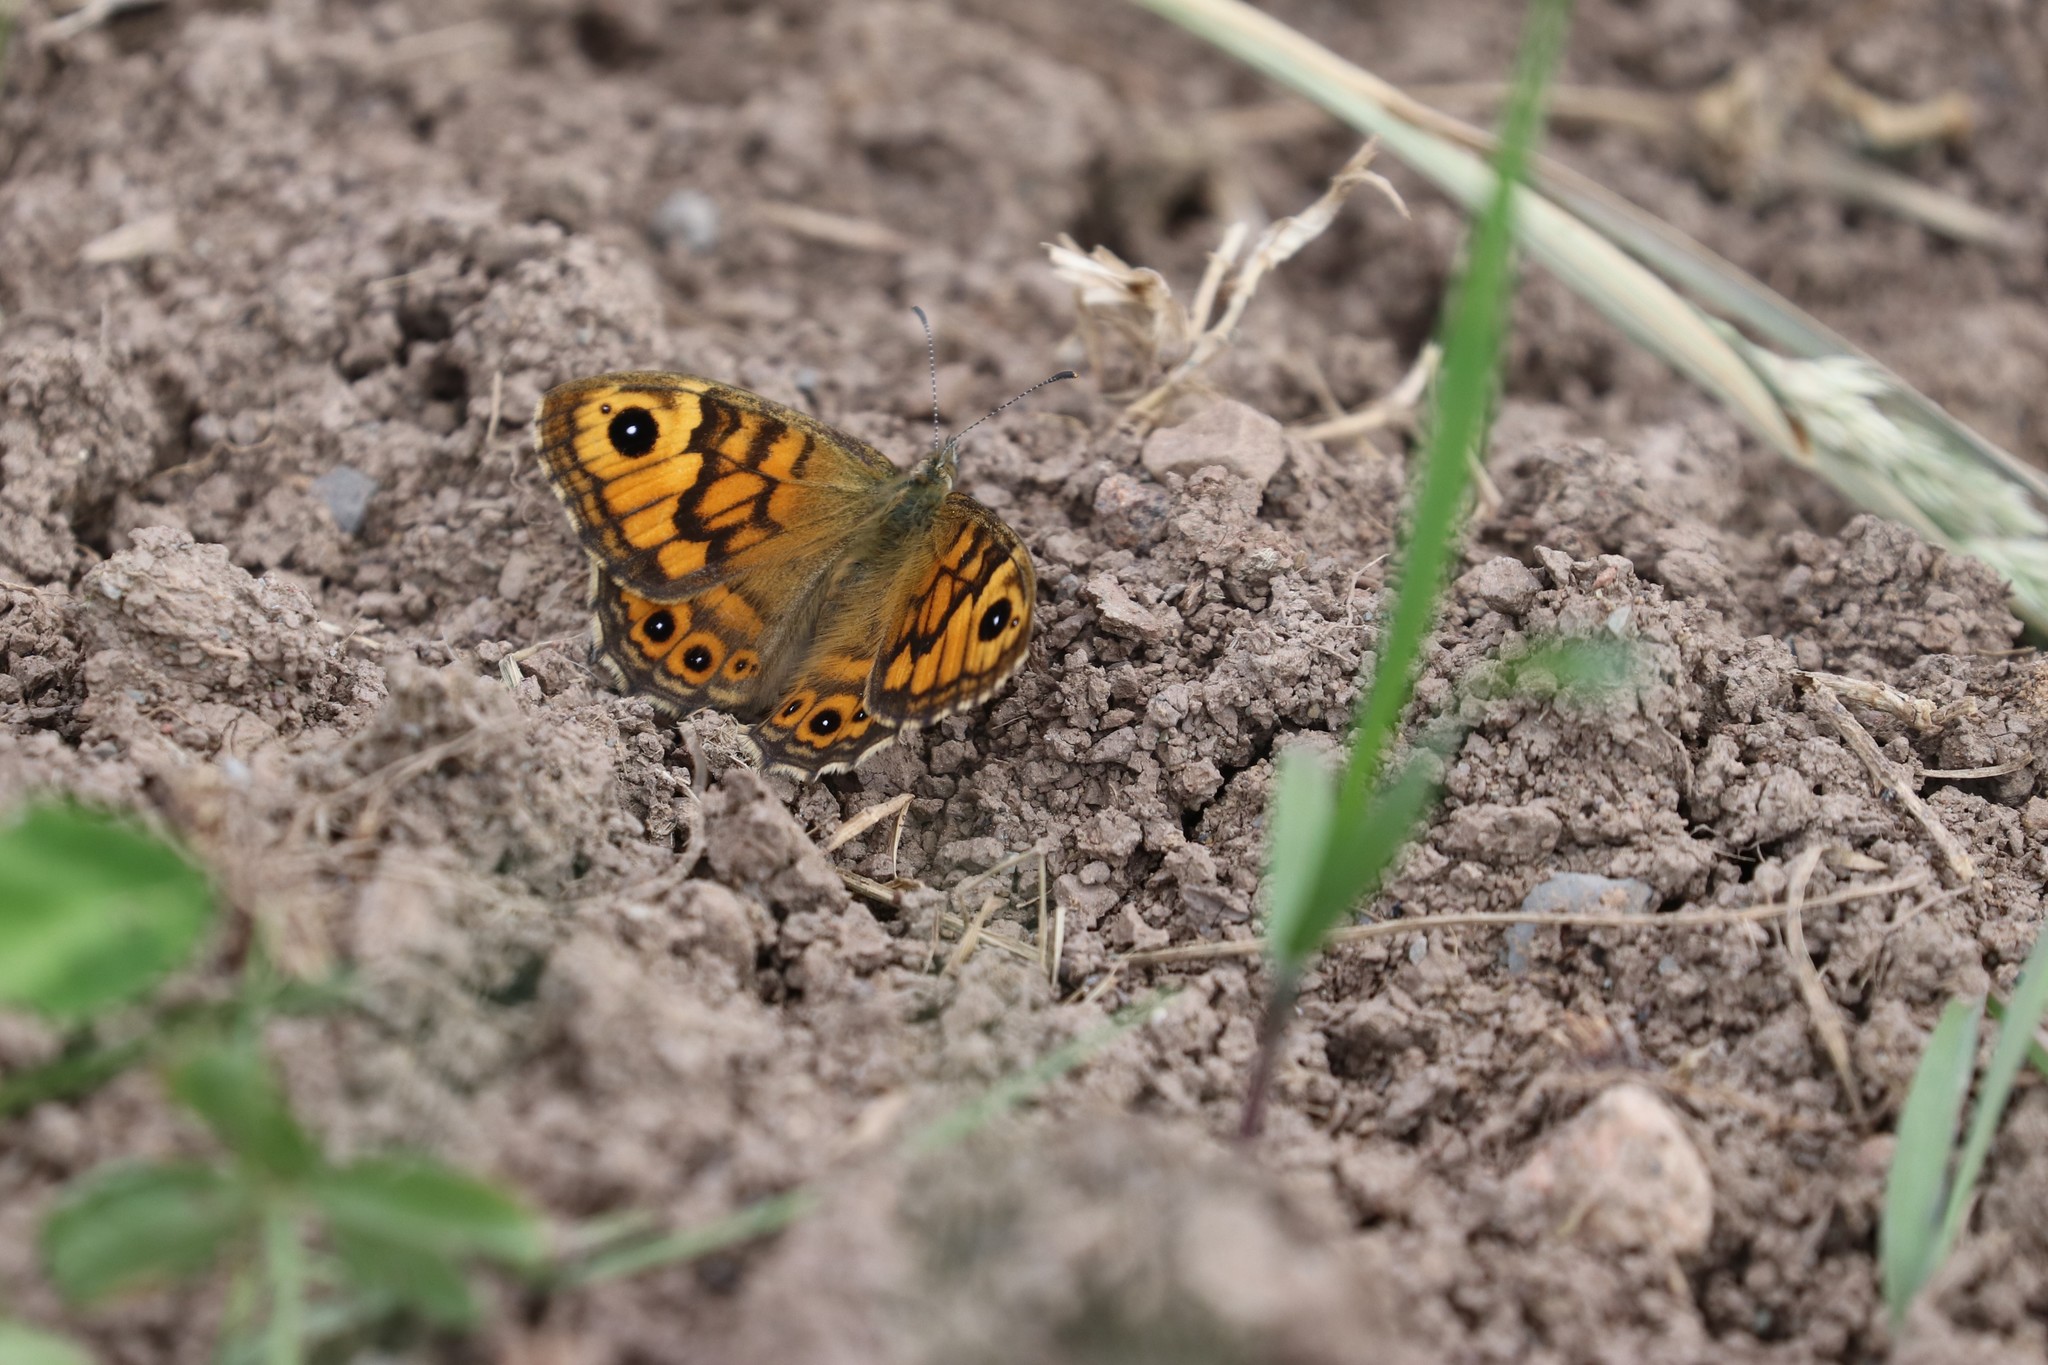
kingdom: Animalia
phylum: Arthropoda
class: Insecta
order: Lepidoptera
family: Nymphalidae
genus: Pararge
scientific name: Pararge Lasiommata megera
